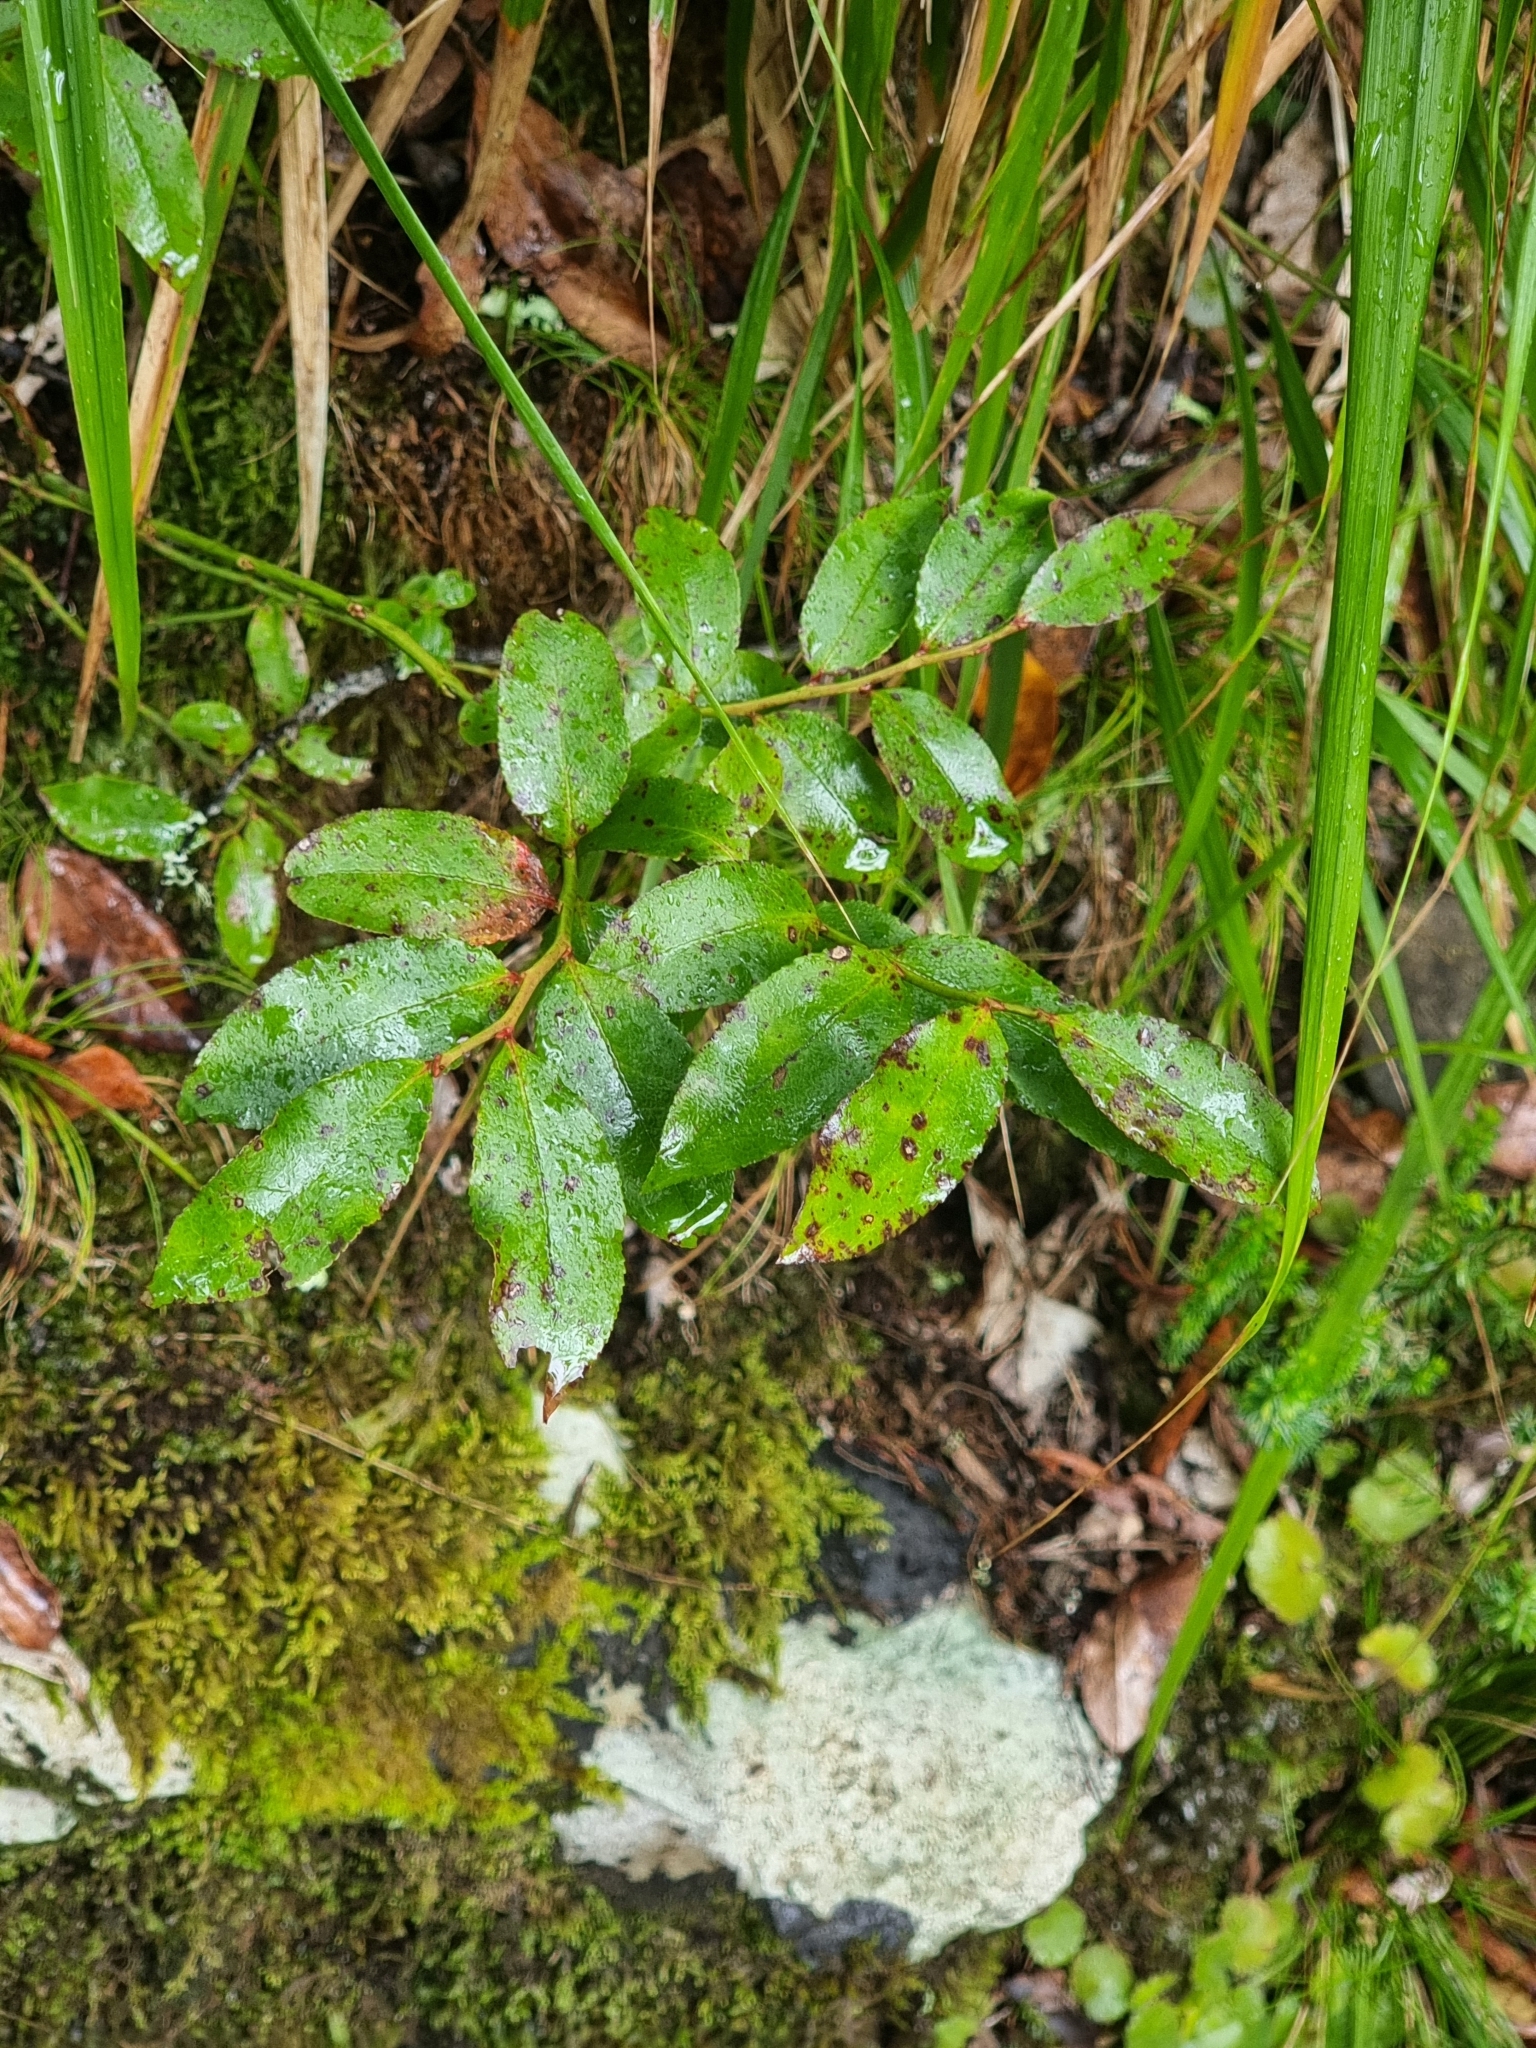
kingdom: Plantae
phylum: Tracheophyta
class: Magnoliopsida
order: Ericales
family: Ericaceae
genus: Vaccinium
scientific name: Vaccinium padifolium
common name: Madeiran blueberry
